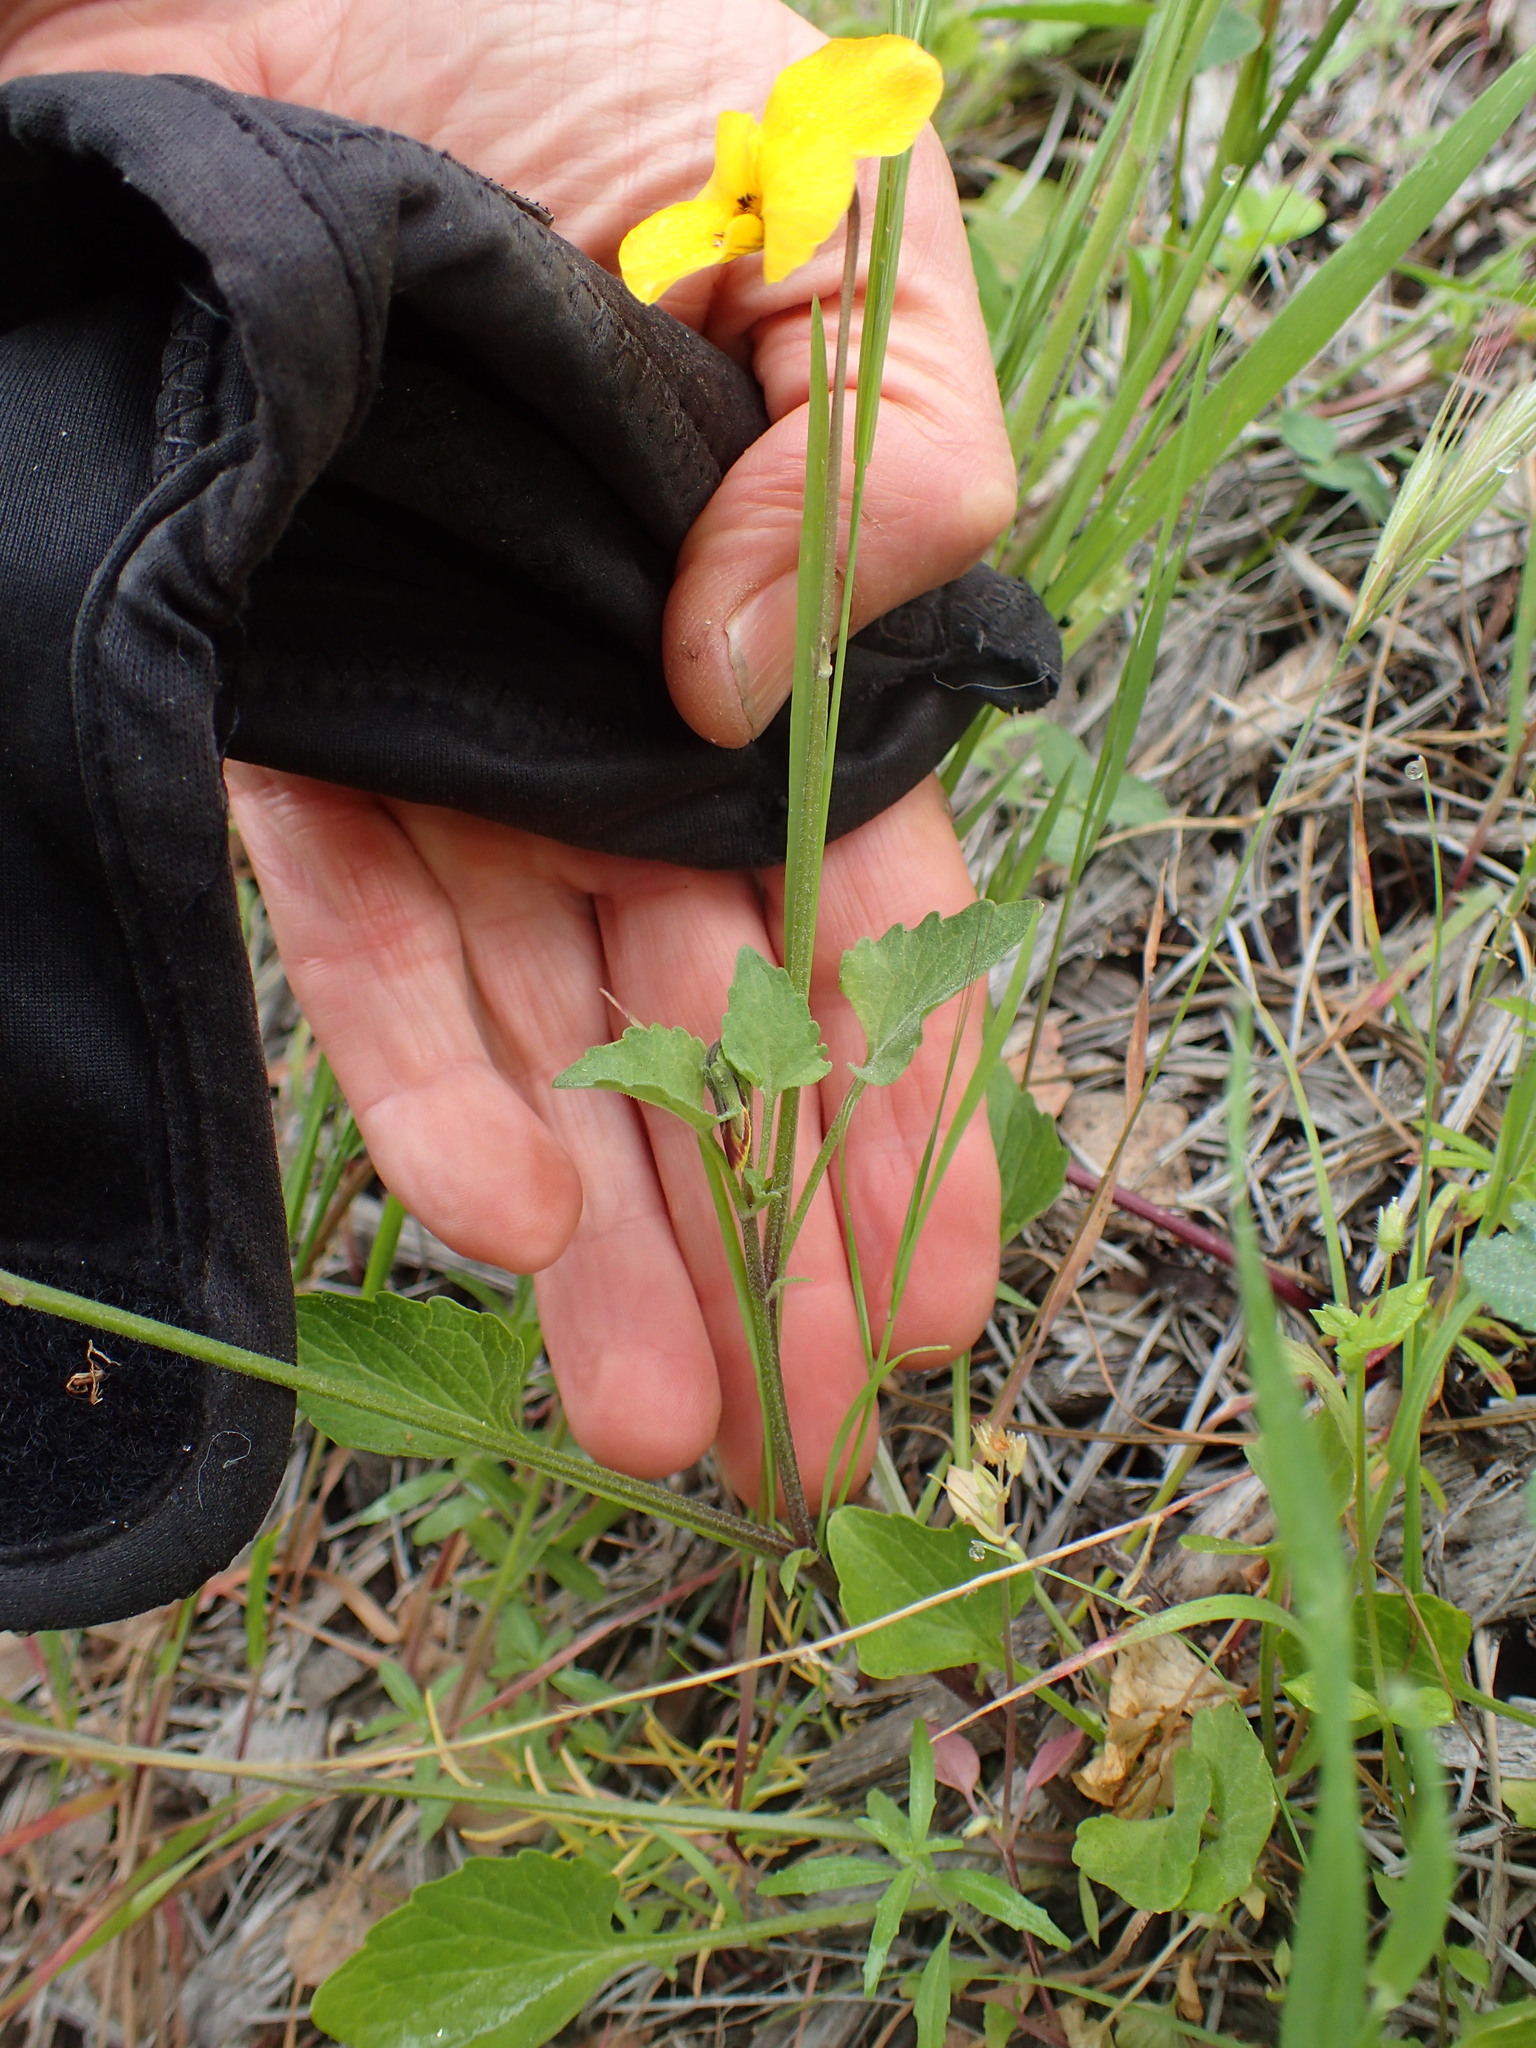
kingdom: Plantae
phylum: Tracheophyta
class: Magnoliopsida
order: Malpighiales
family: Violaceae
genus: Viola
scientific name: Viola pedunculata
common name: California golden violet
